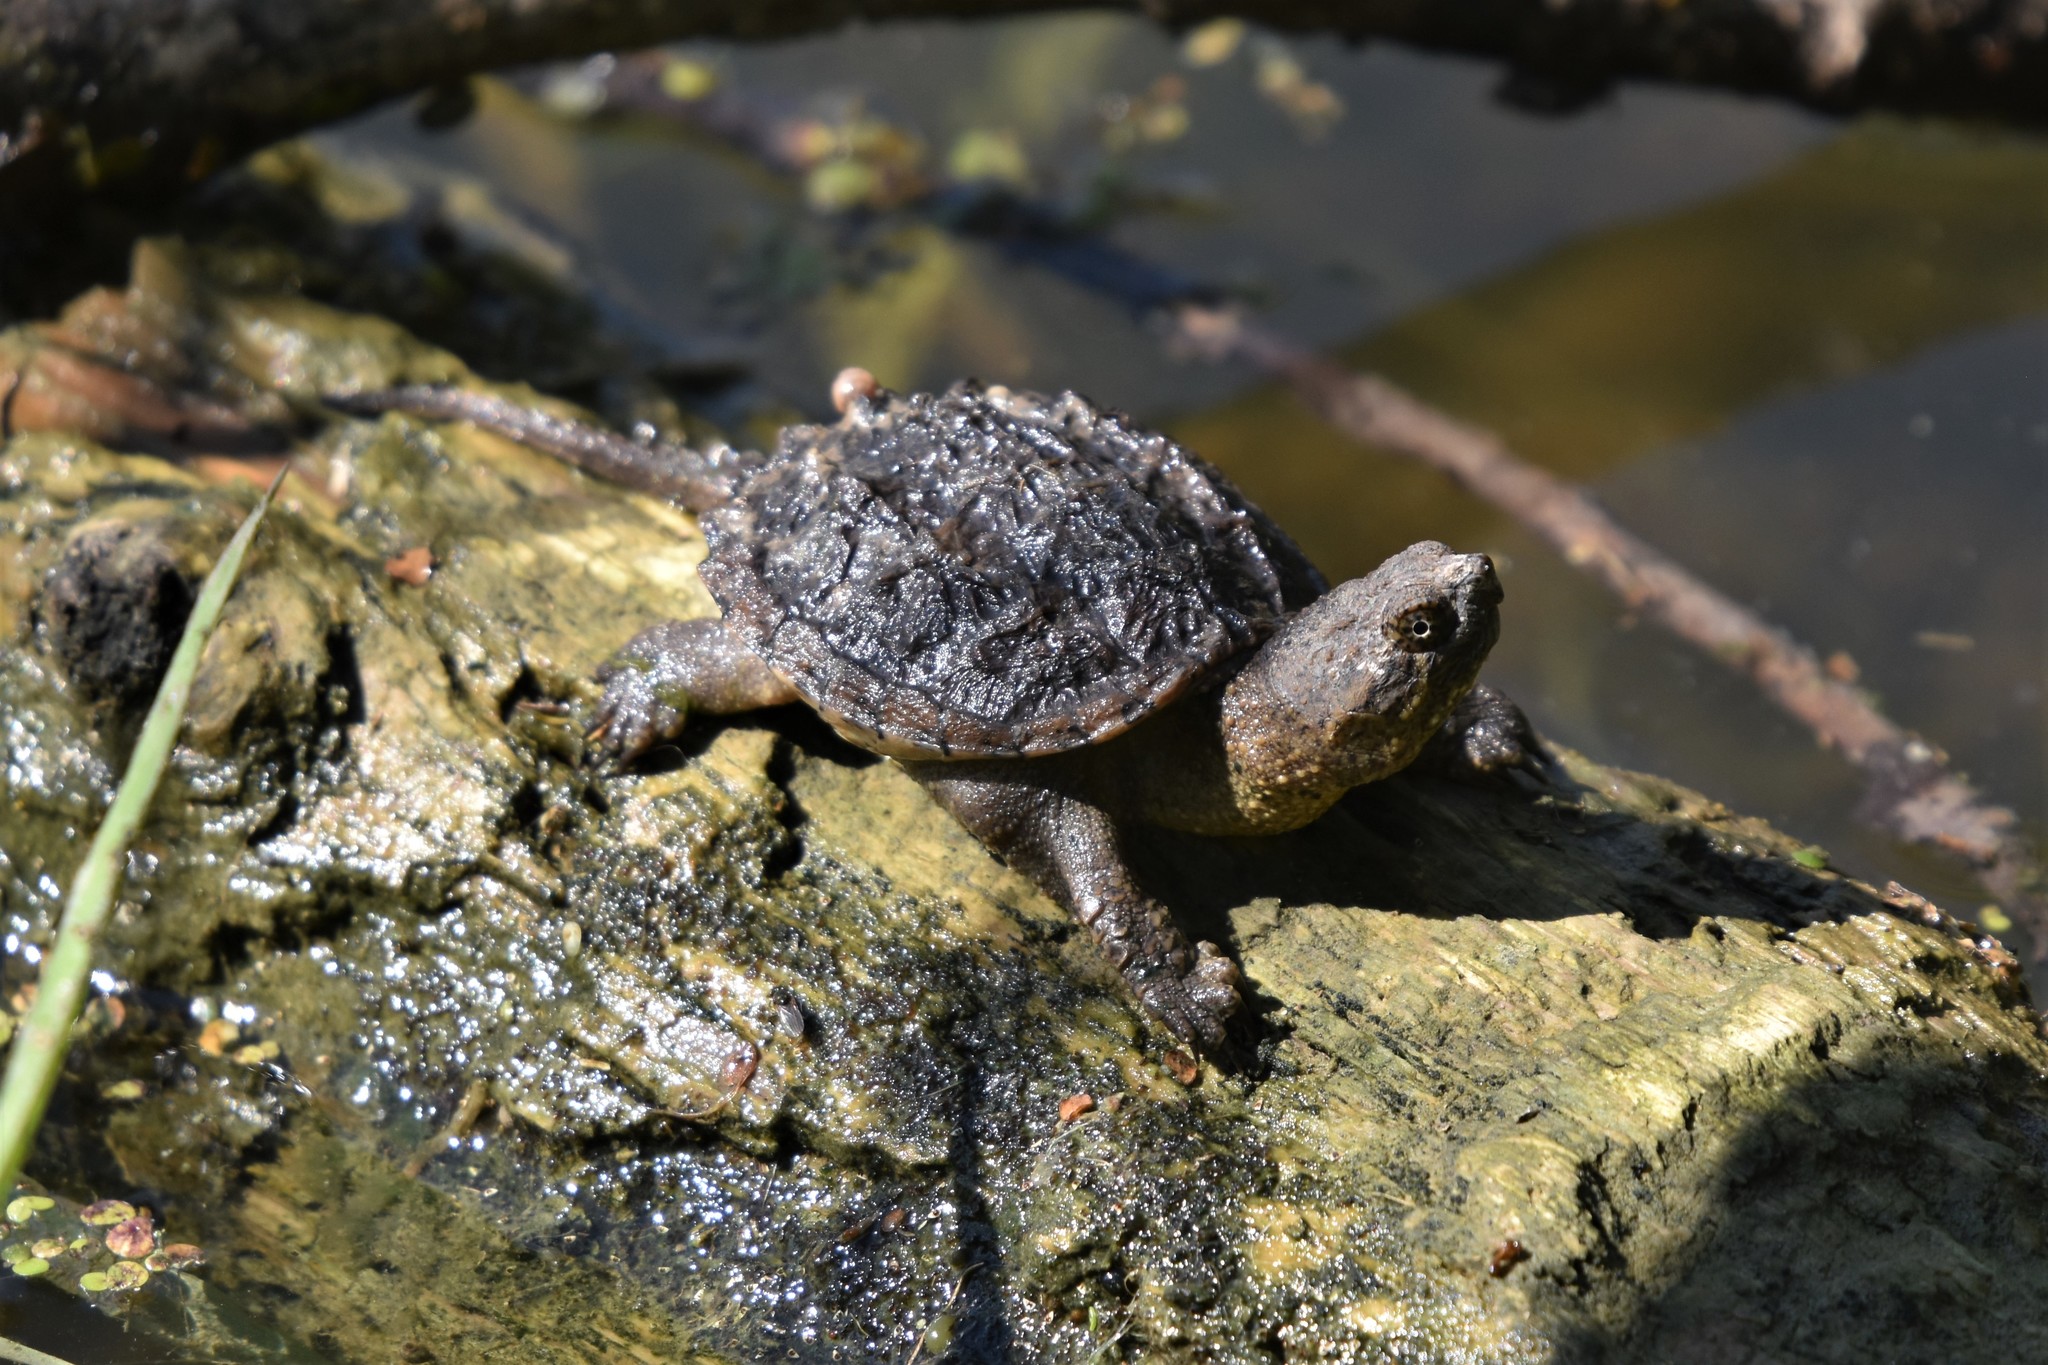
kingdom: Animalia
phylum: Chordata
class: Testudines
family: Chelydridae
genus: Chelydra
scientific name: Chelydra serpentina
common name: Common snapping turtle
